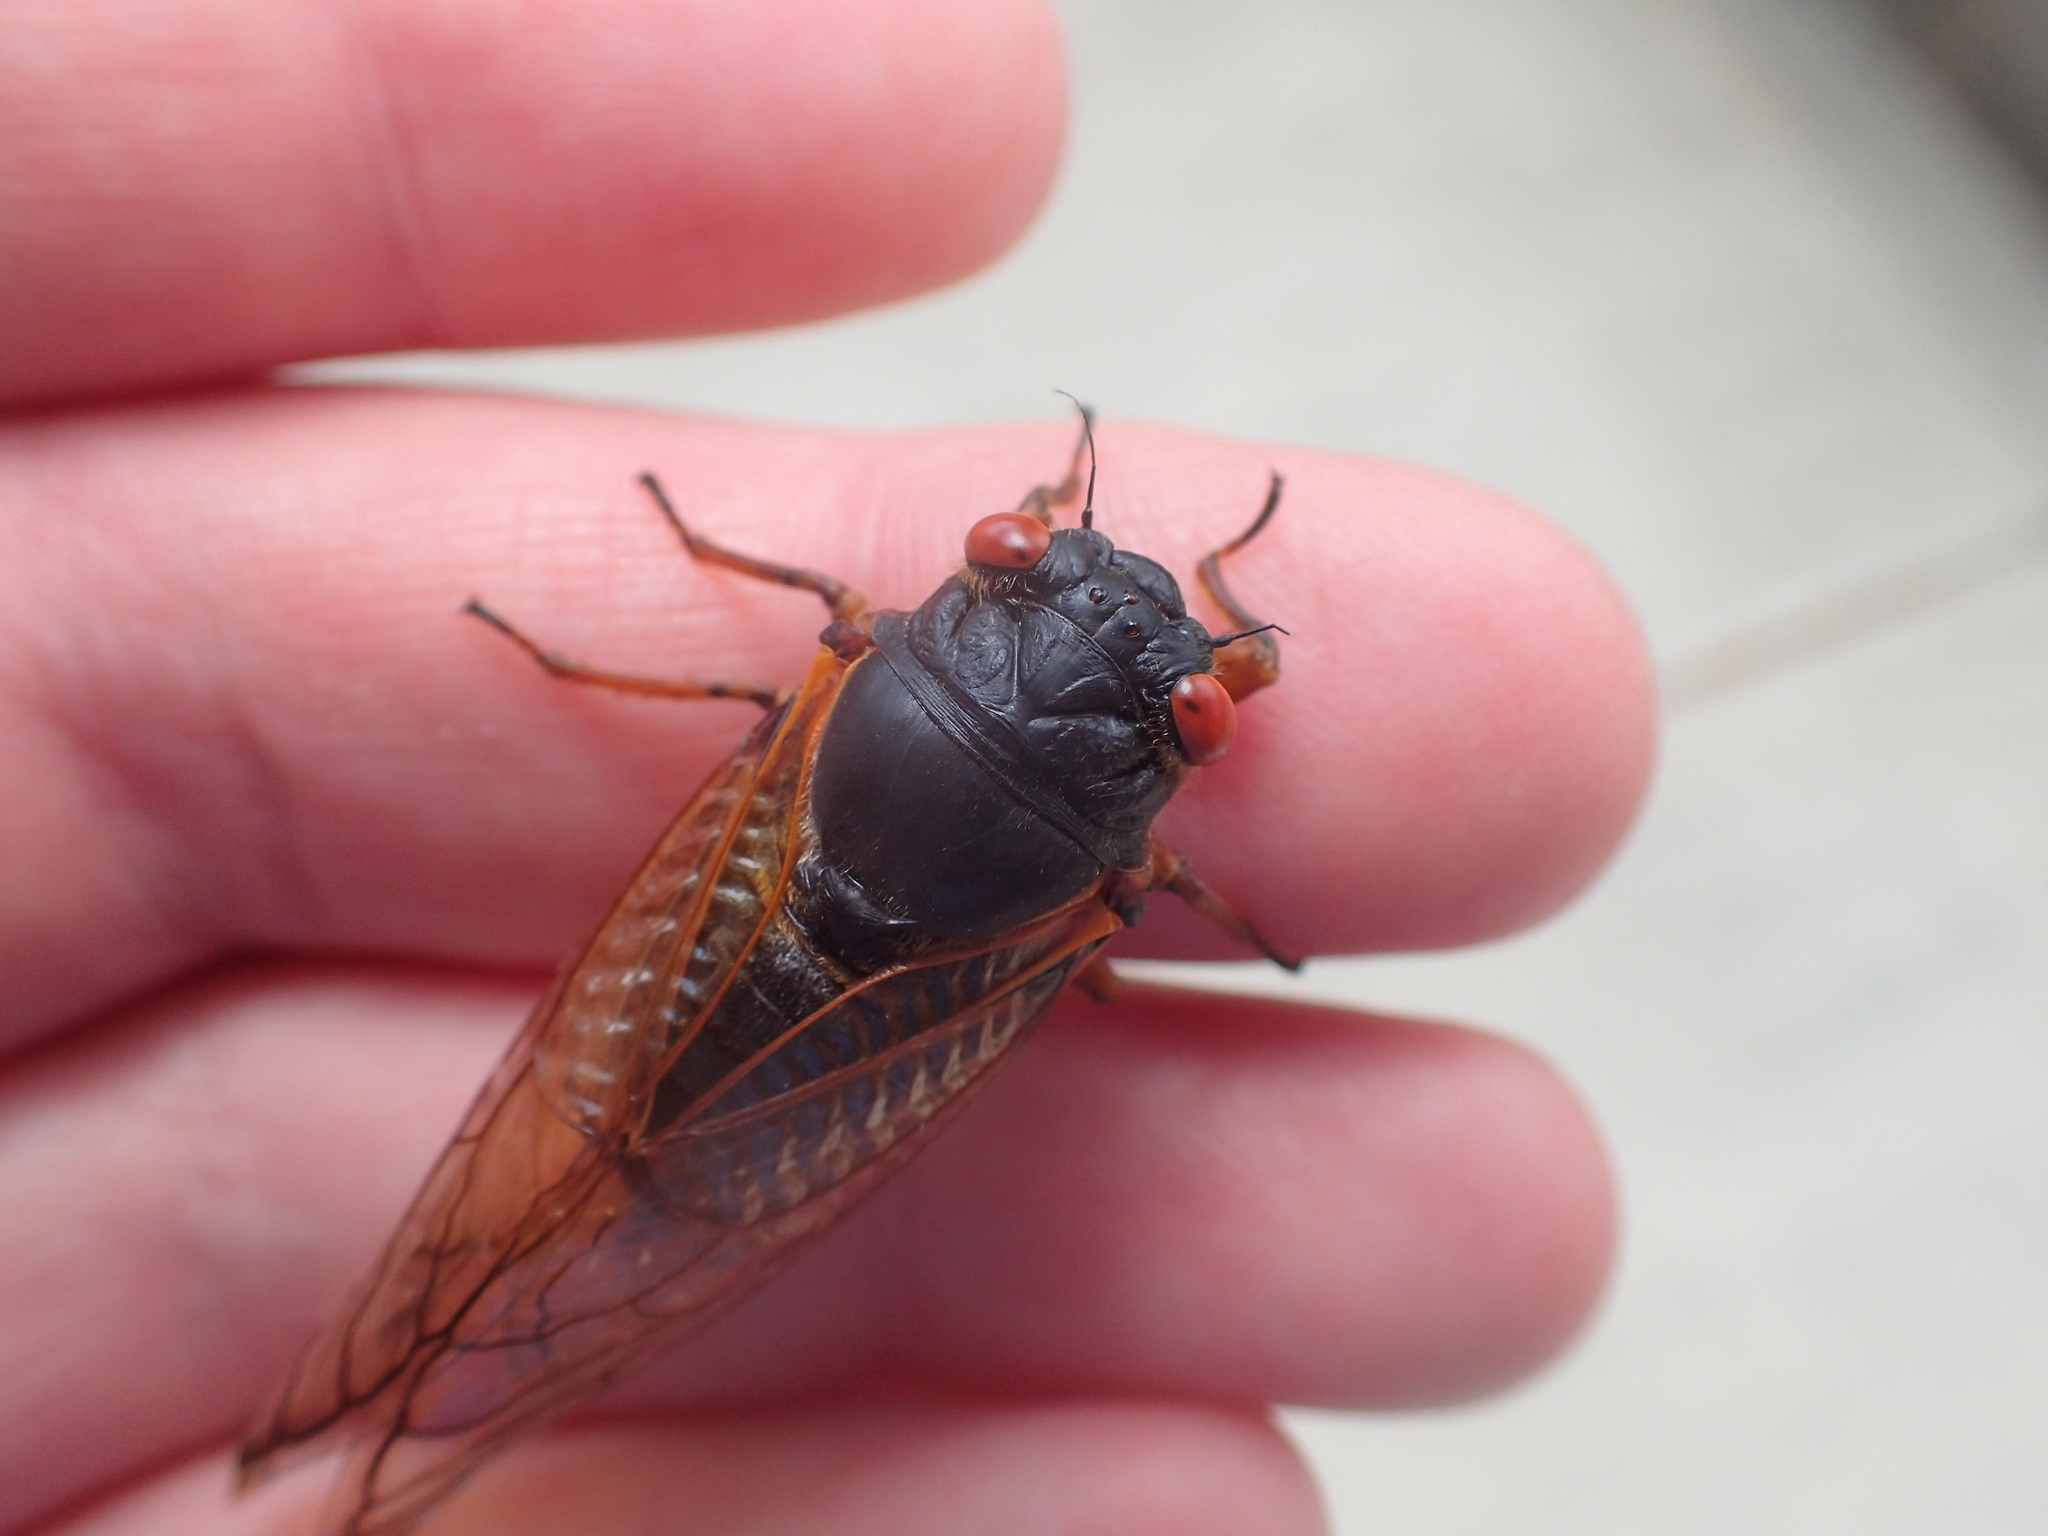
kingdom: Animalia
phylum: Arthropoda
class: Insecta
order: Hemiptera
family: Cicadidae
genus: Magicicada
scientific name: Magicicada septendecim
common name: Periodical cicada
